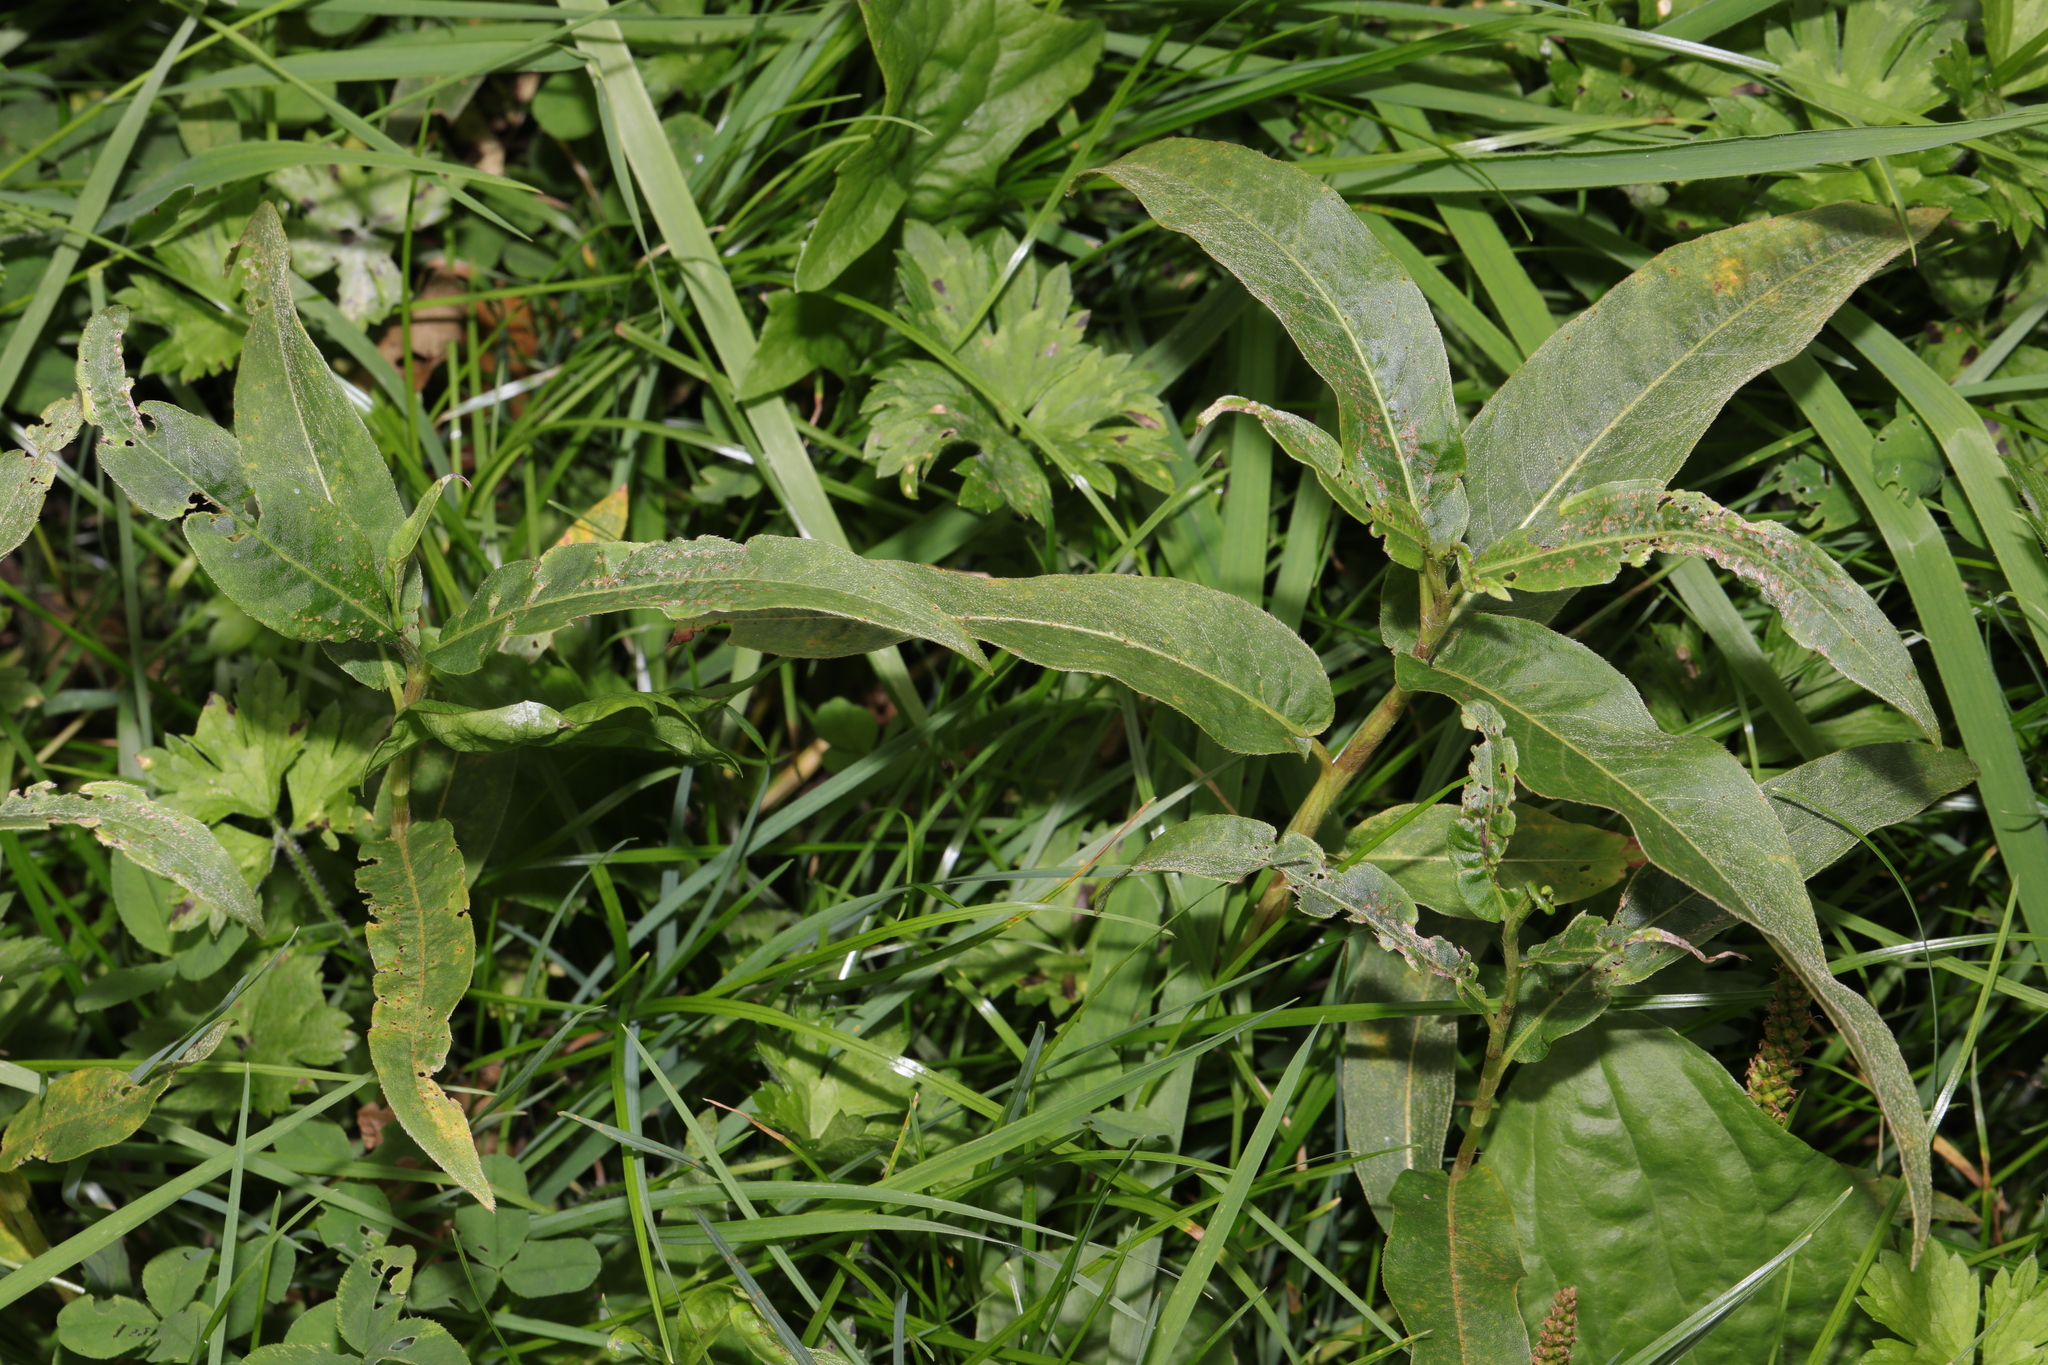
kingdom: Plantae
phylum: Tracheophyta
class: Magnoliopsida
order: Caryophyllales
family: Polygonaceae
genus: Persicaria
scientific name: Persicaria amphibia
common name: Amphibious bistort
